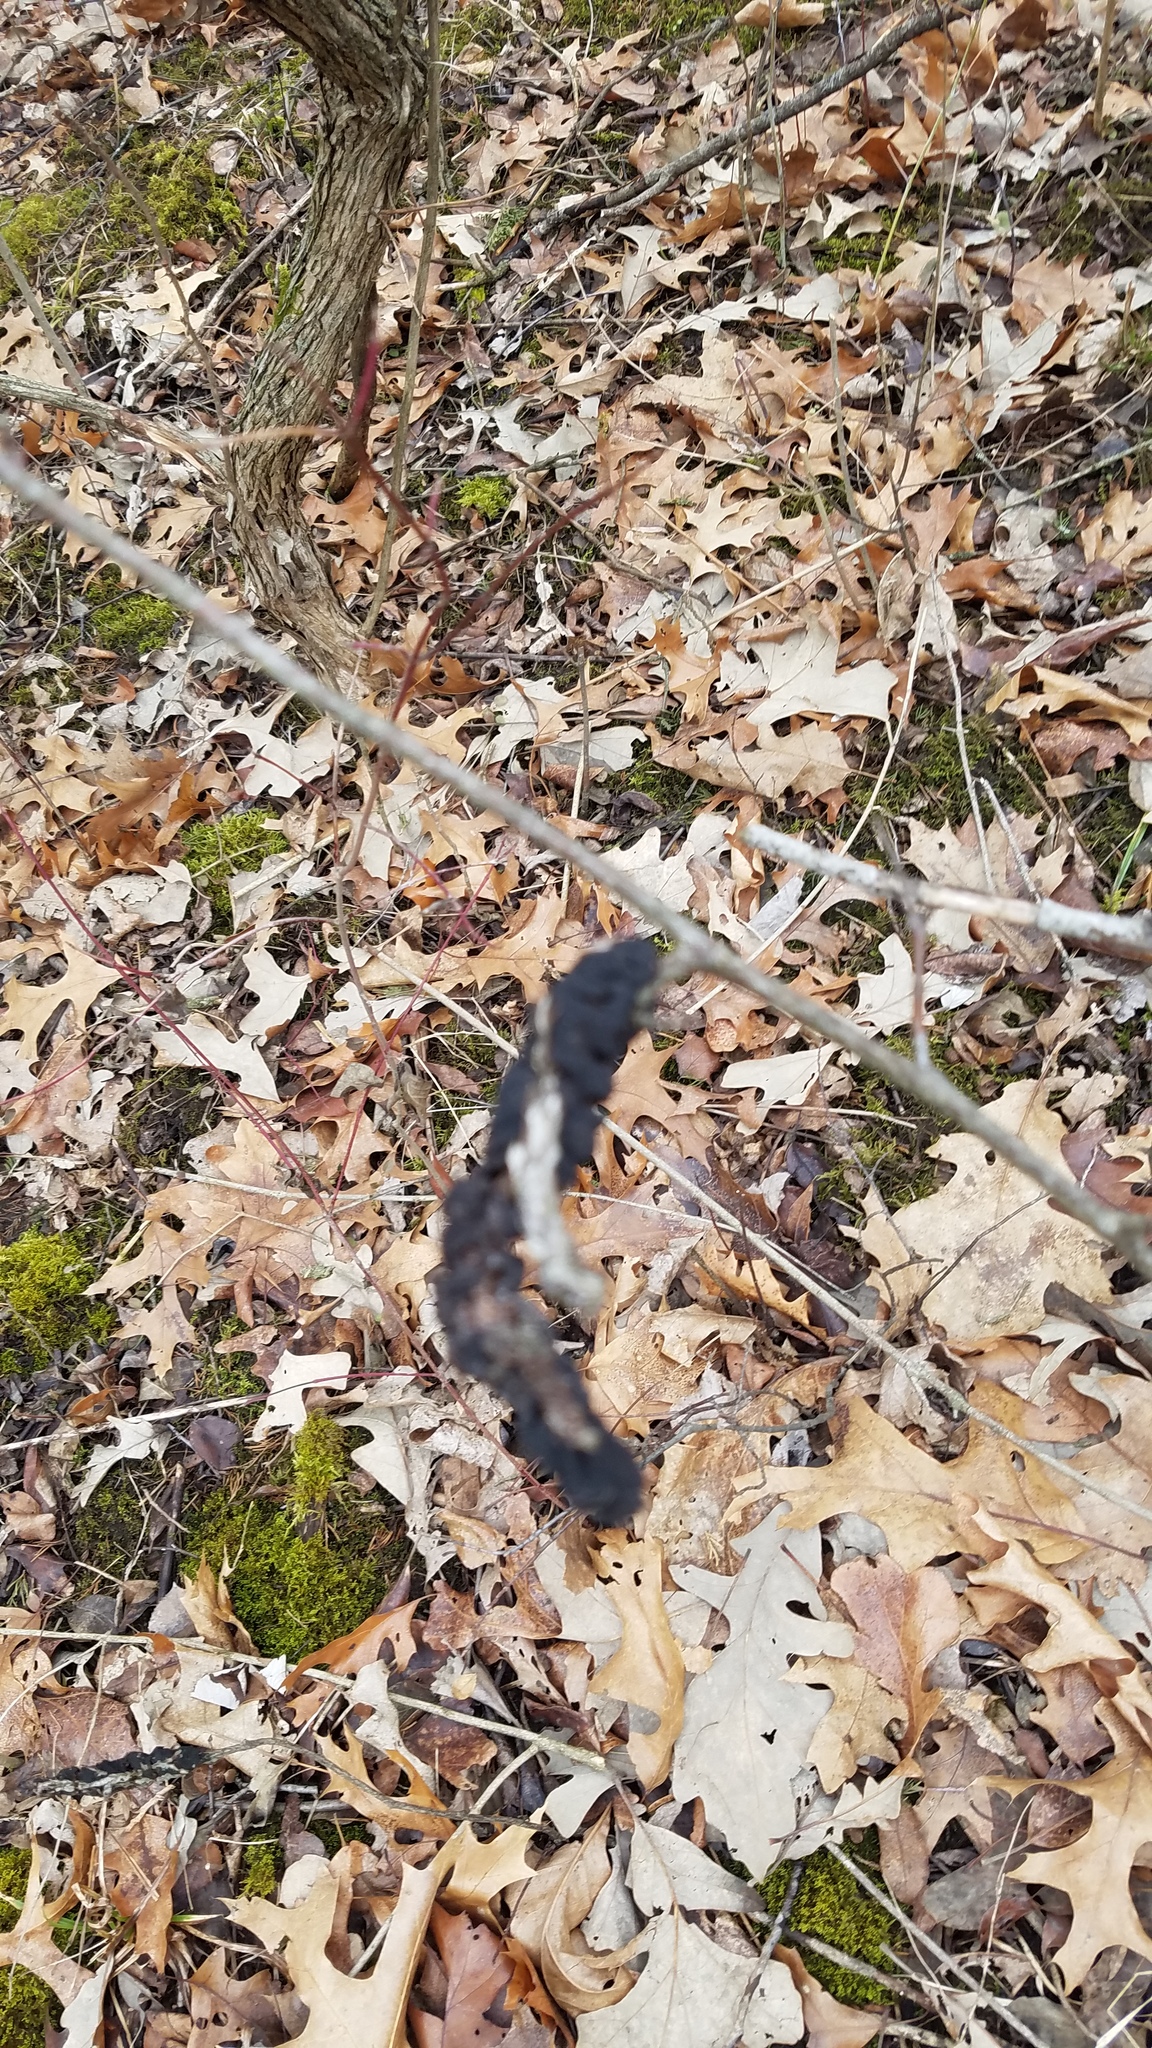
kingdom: Fungi
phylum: Ascomycota
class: Dothideomycetes
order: Venturiales
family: Venturiaceae
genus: Apiosporina
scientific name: Apiosporina morbosa
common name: Black knot
